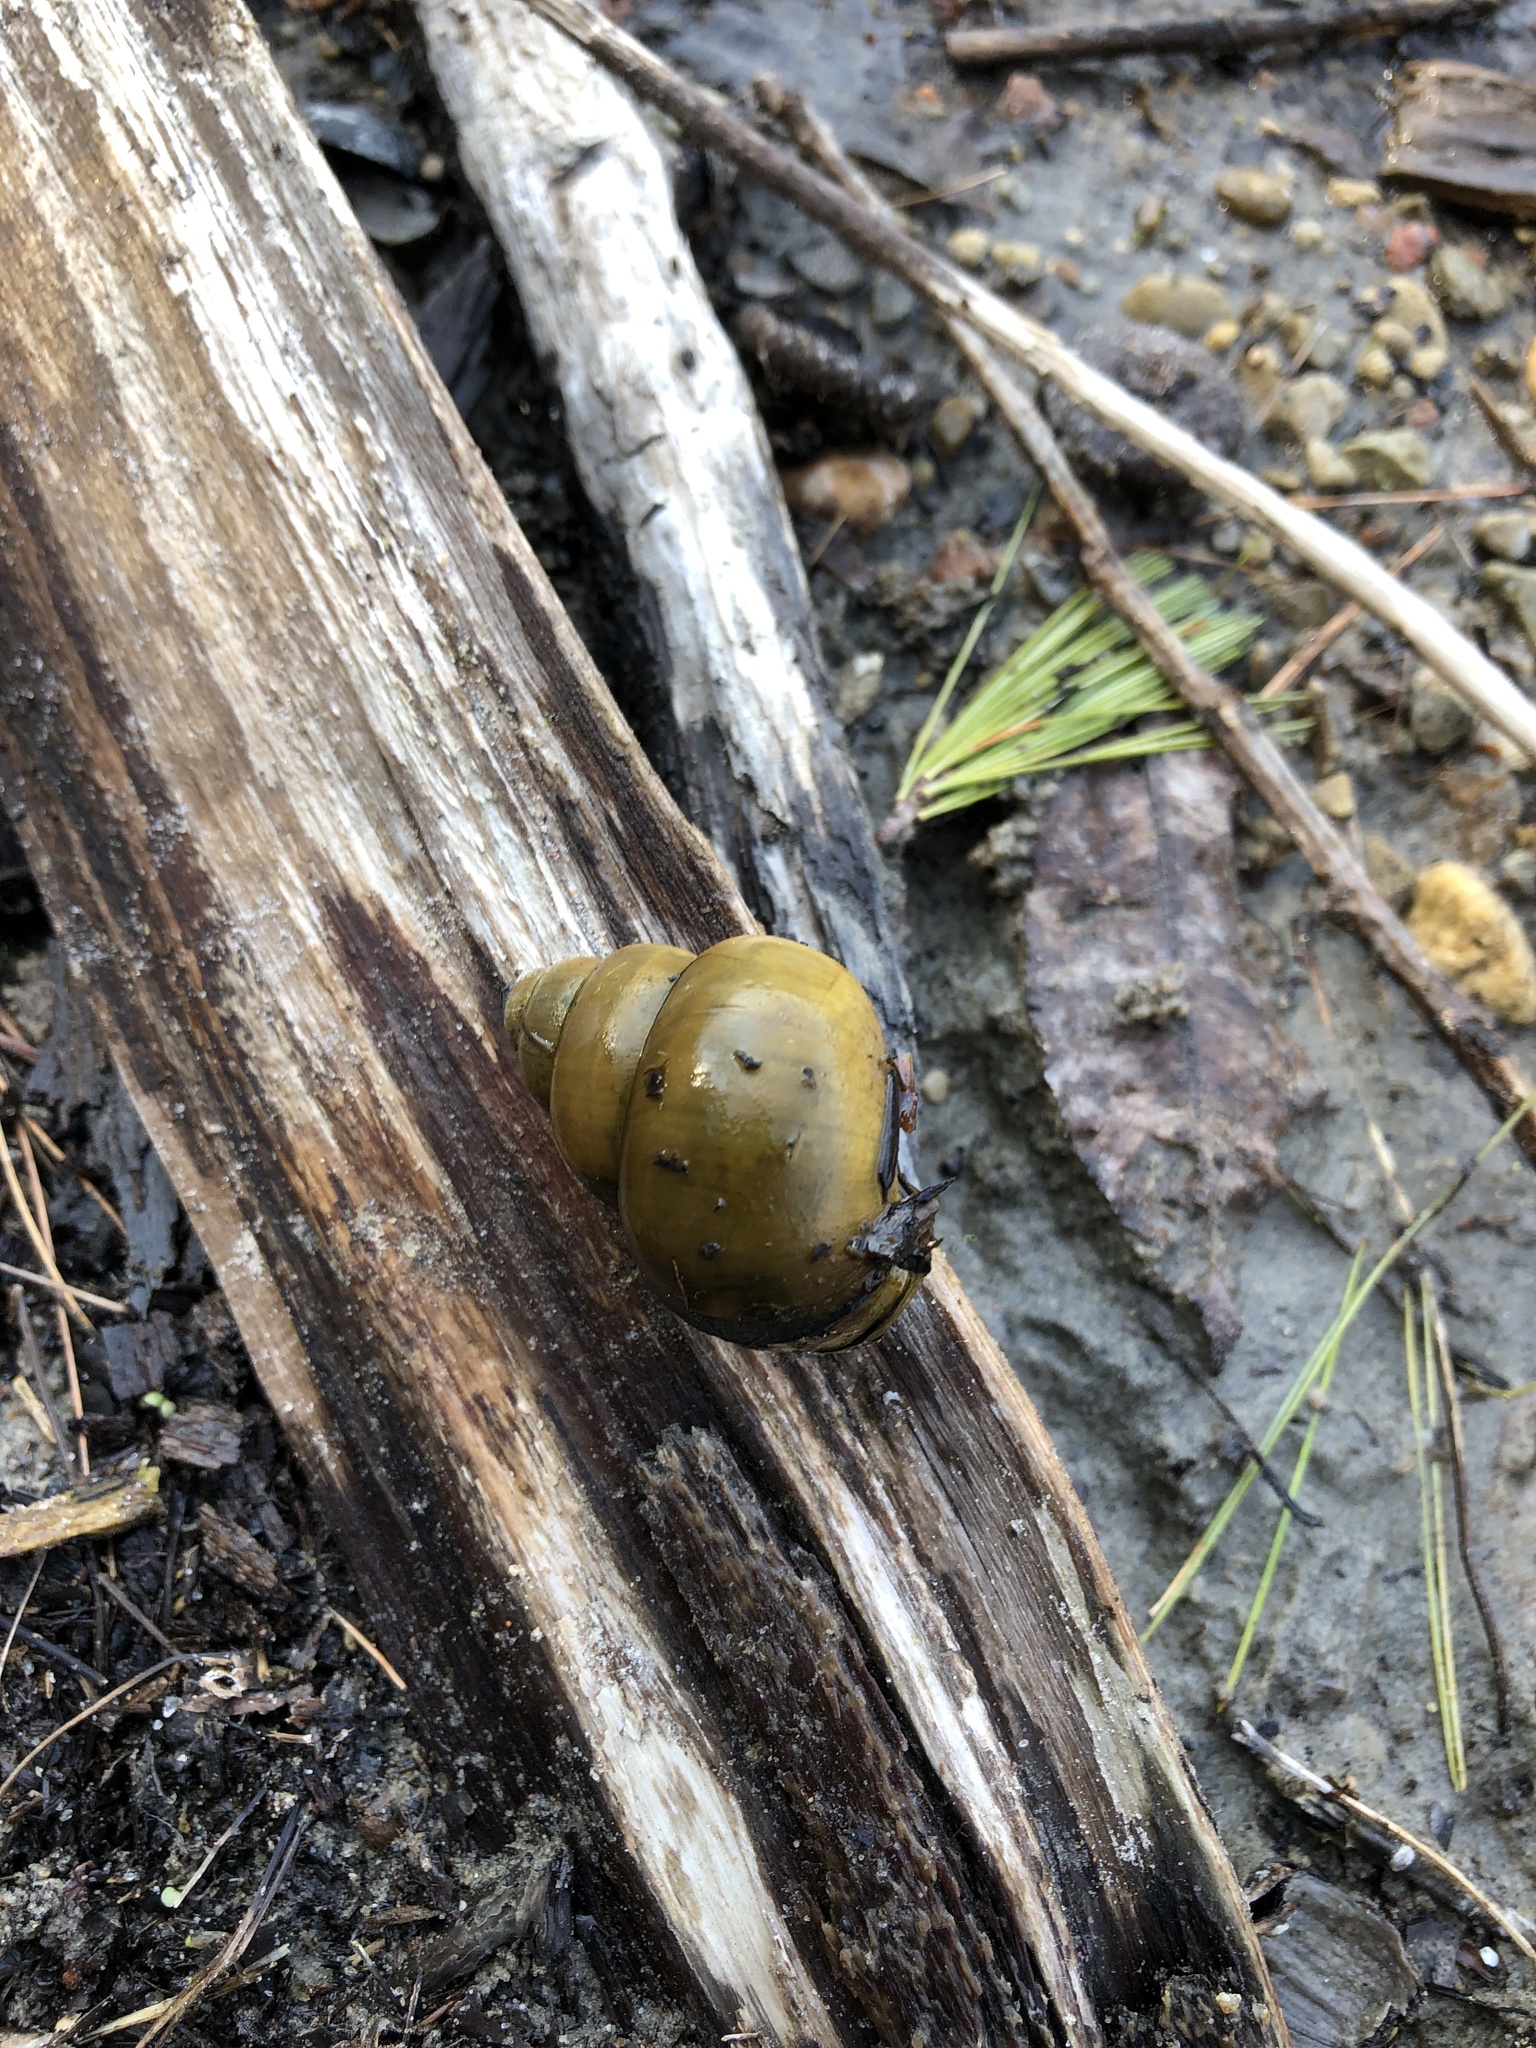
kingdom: Animalia
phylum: Mollusca
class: Gastropoda
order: Architaenioglossa
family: Viviparidae
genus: Cipangopaludina
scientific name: Cipangopaludina chinensis
